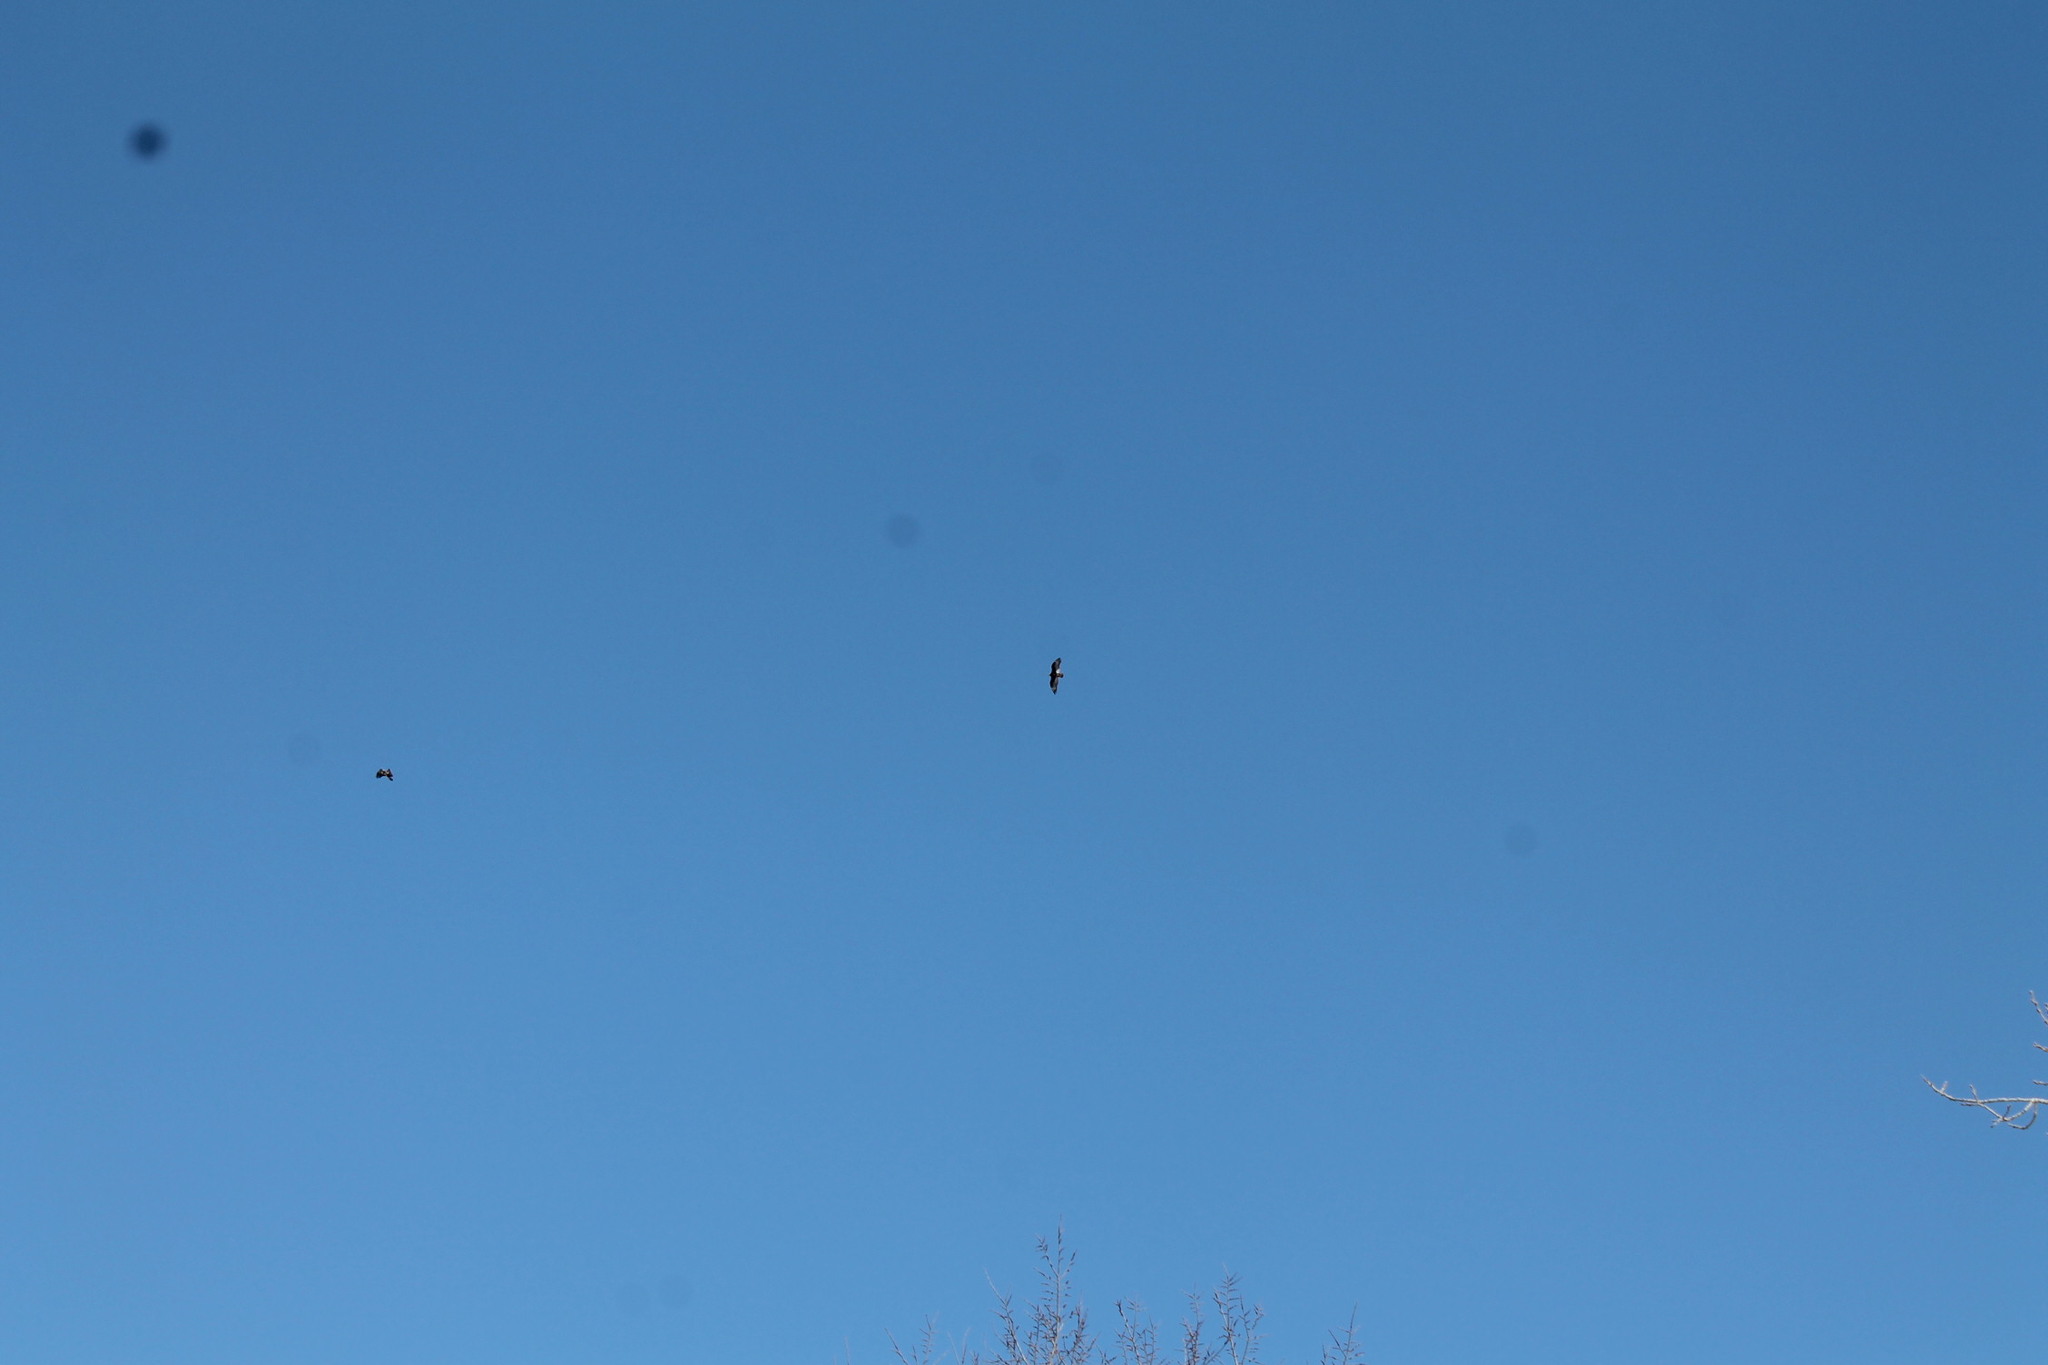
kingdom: Animalia
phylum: Chordata
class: Aves
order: Accipitriformes
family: Accipitridae
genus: Haliaeetus
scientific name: Haliaeetus leucocephalus
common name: Bald eagle
